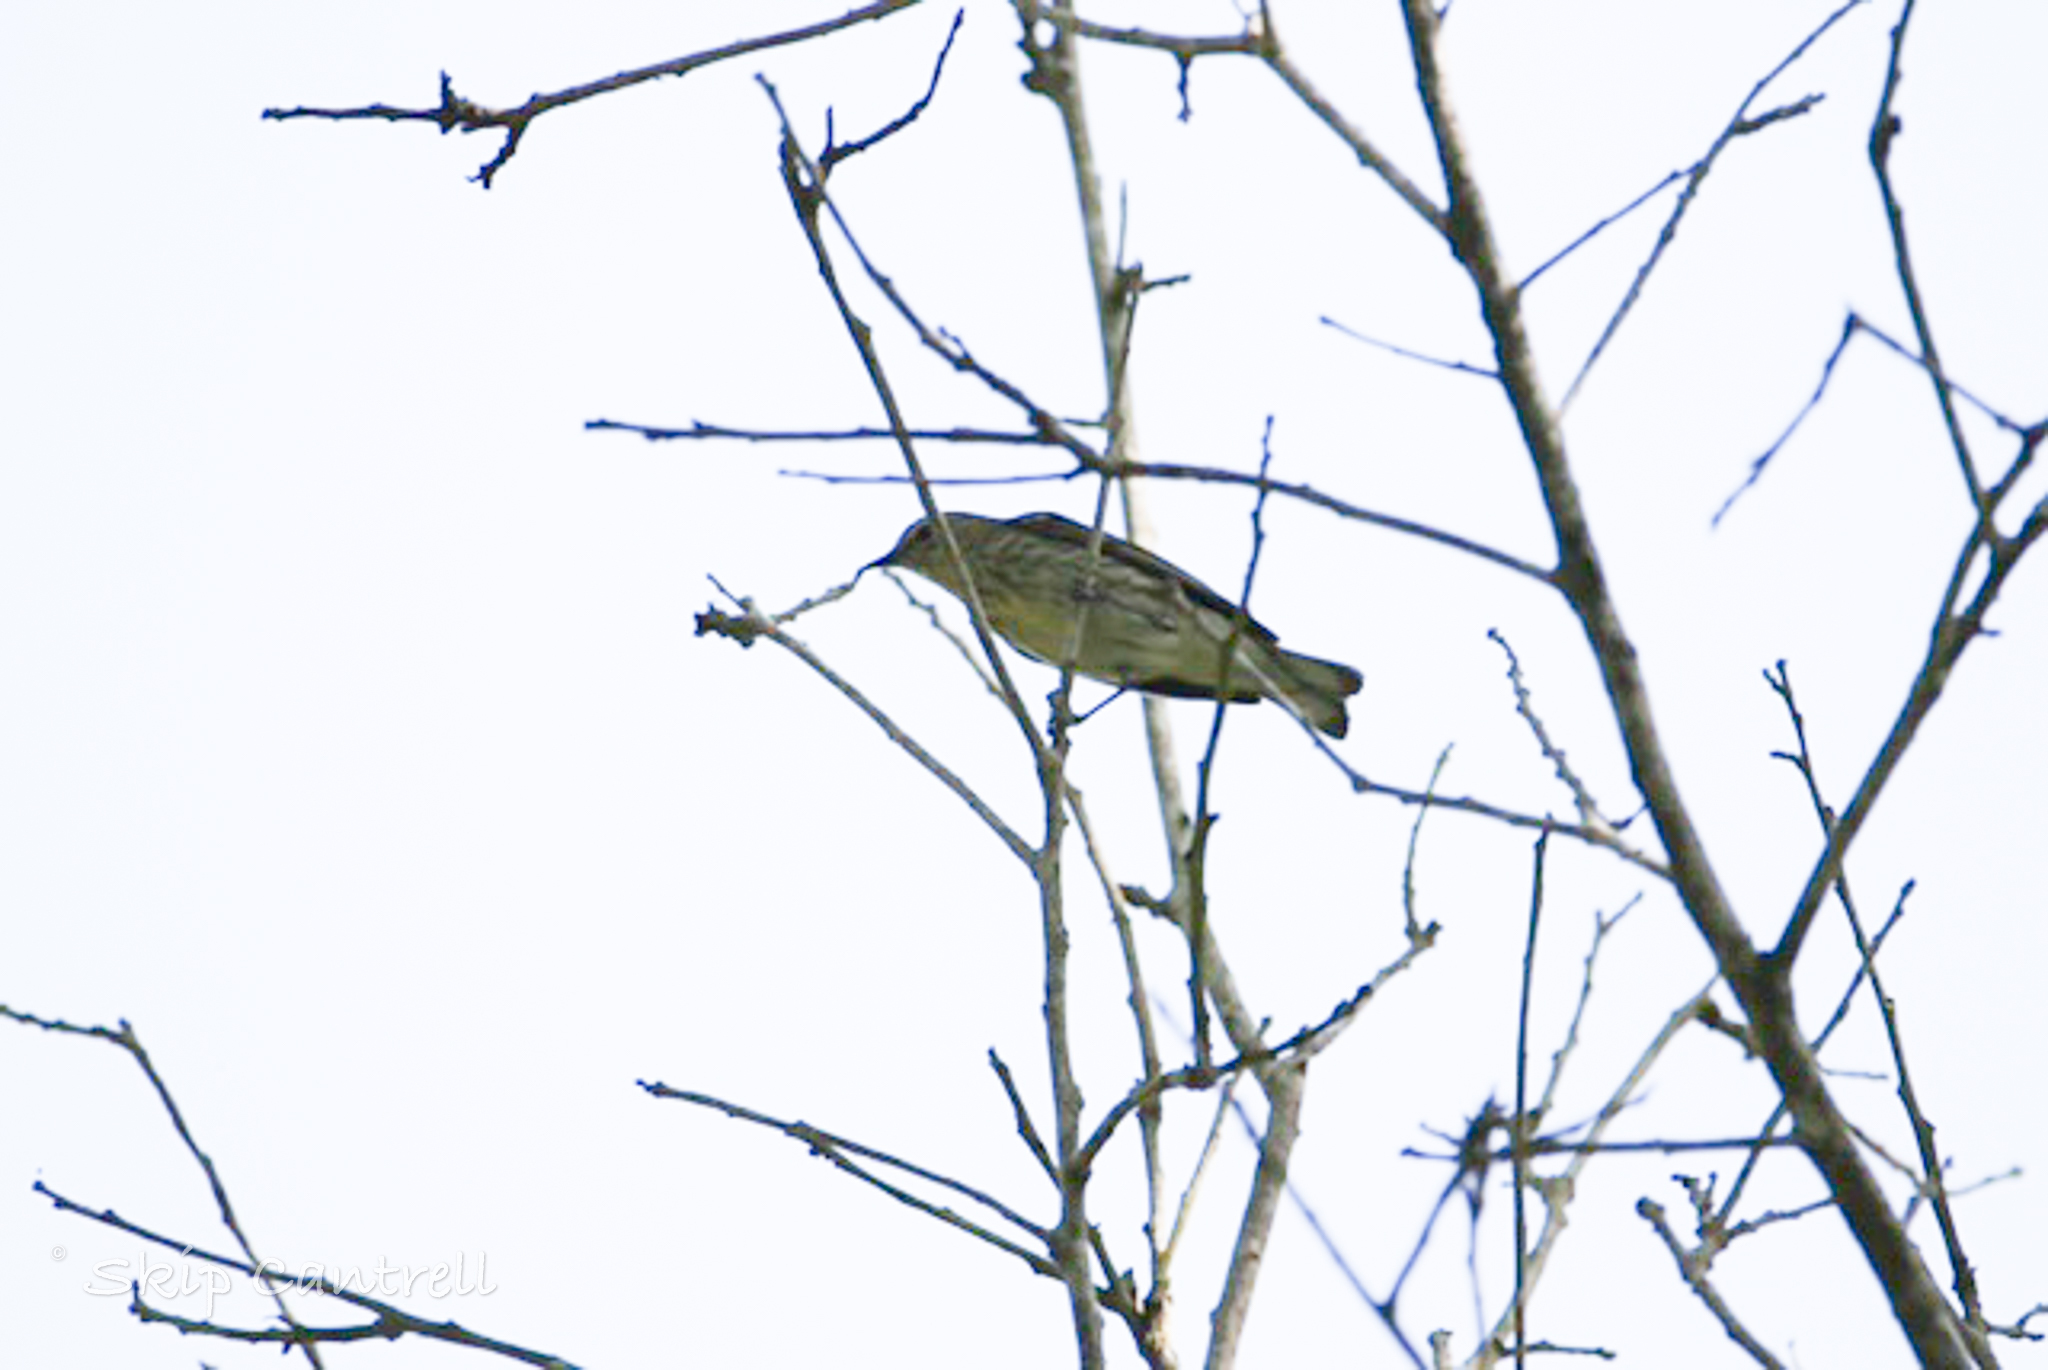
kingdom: Animalia
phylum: Chordata
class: Aves
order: Passeriformes
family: Parulidae
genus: Setophaga
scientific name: Setophaga tigrina
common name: Cape may warbler
